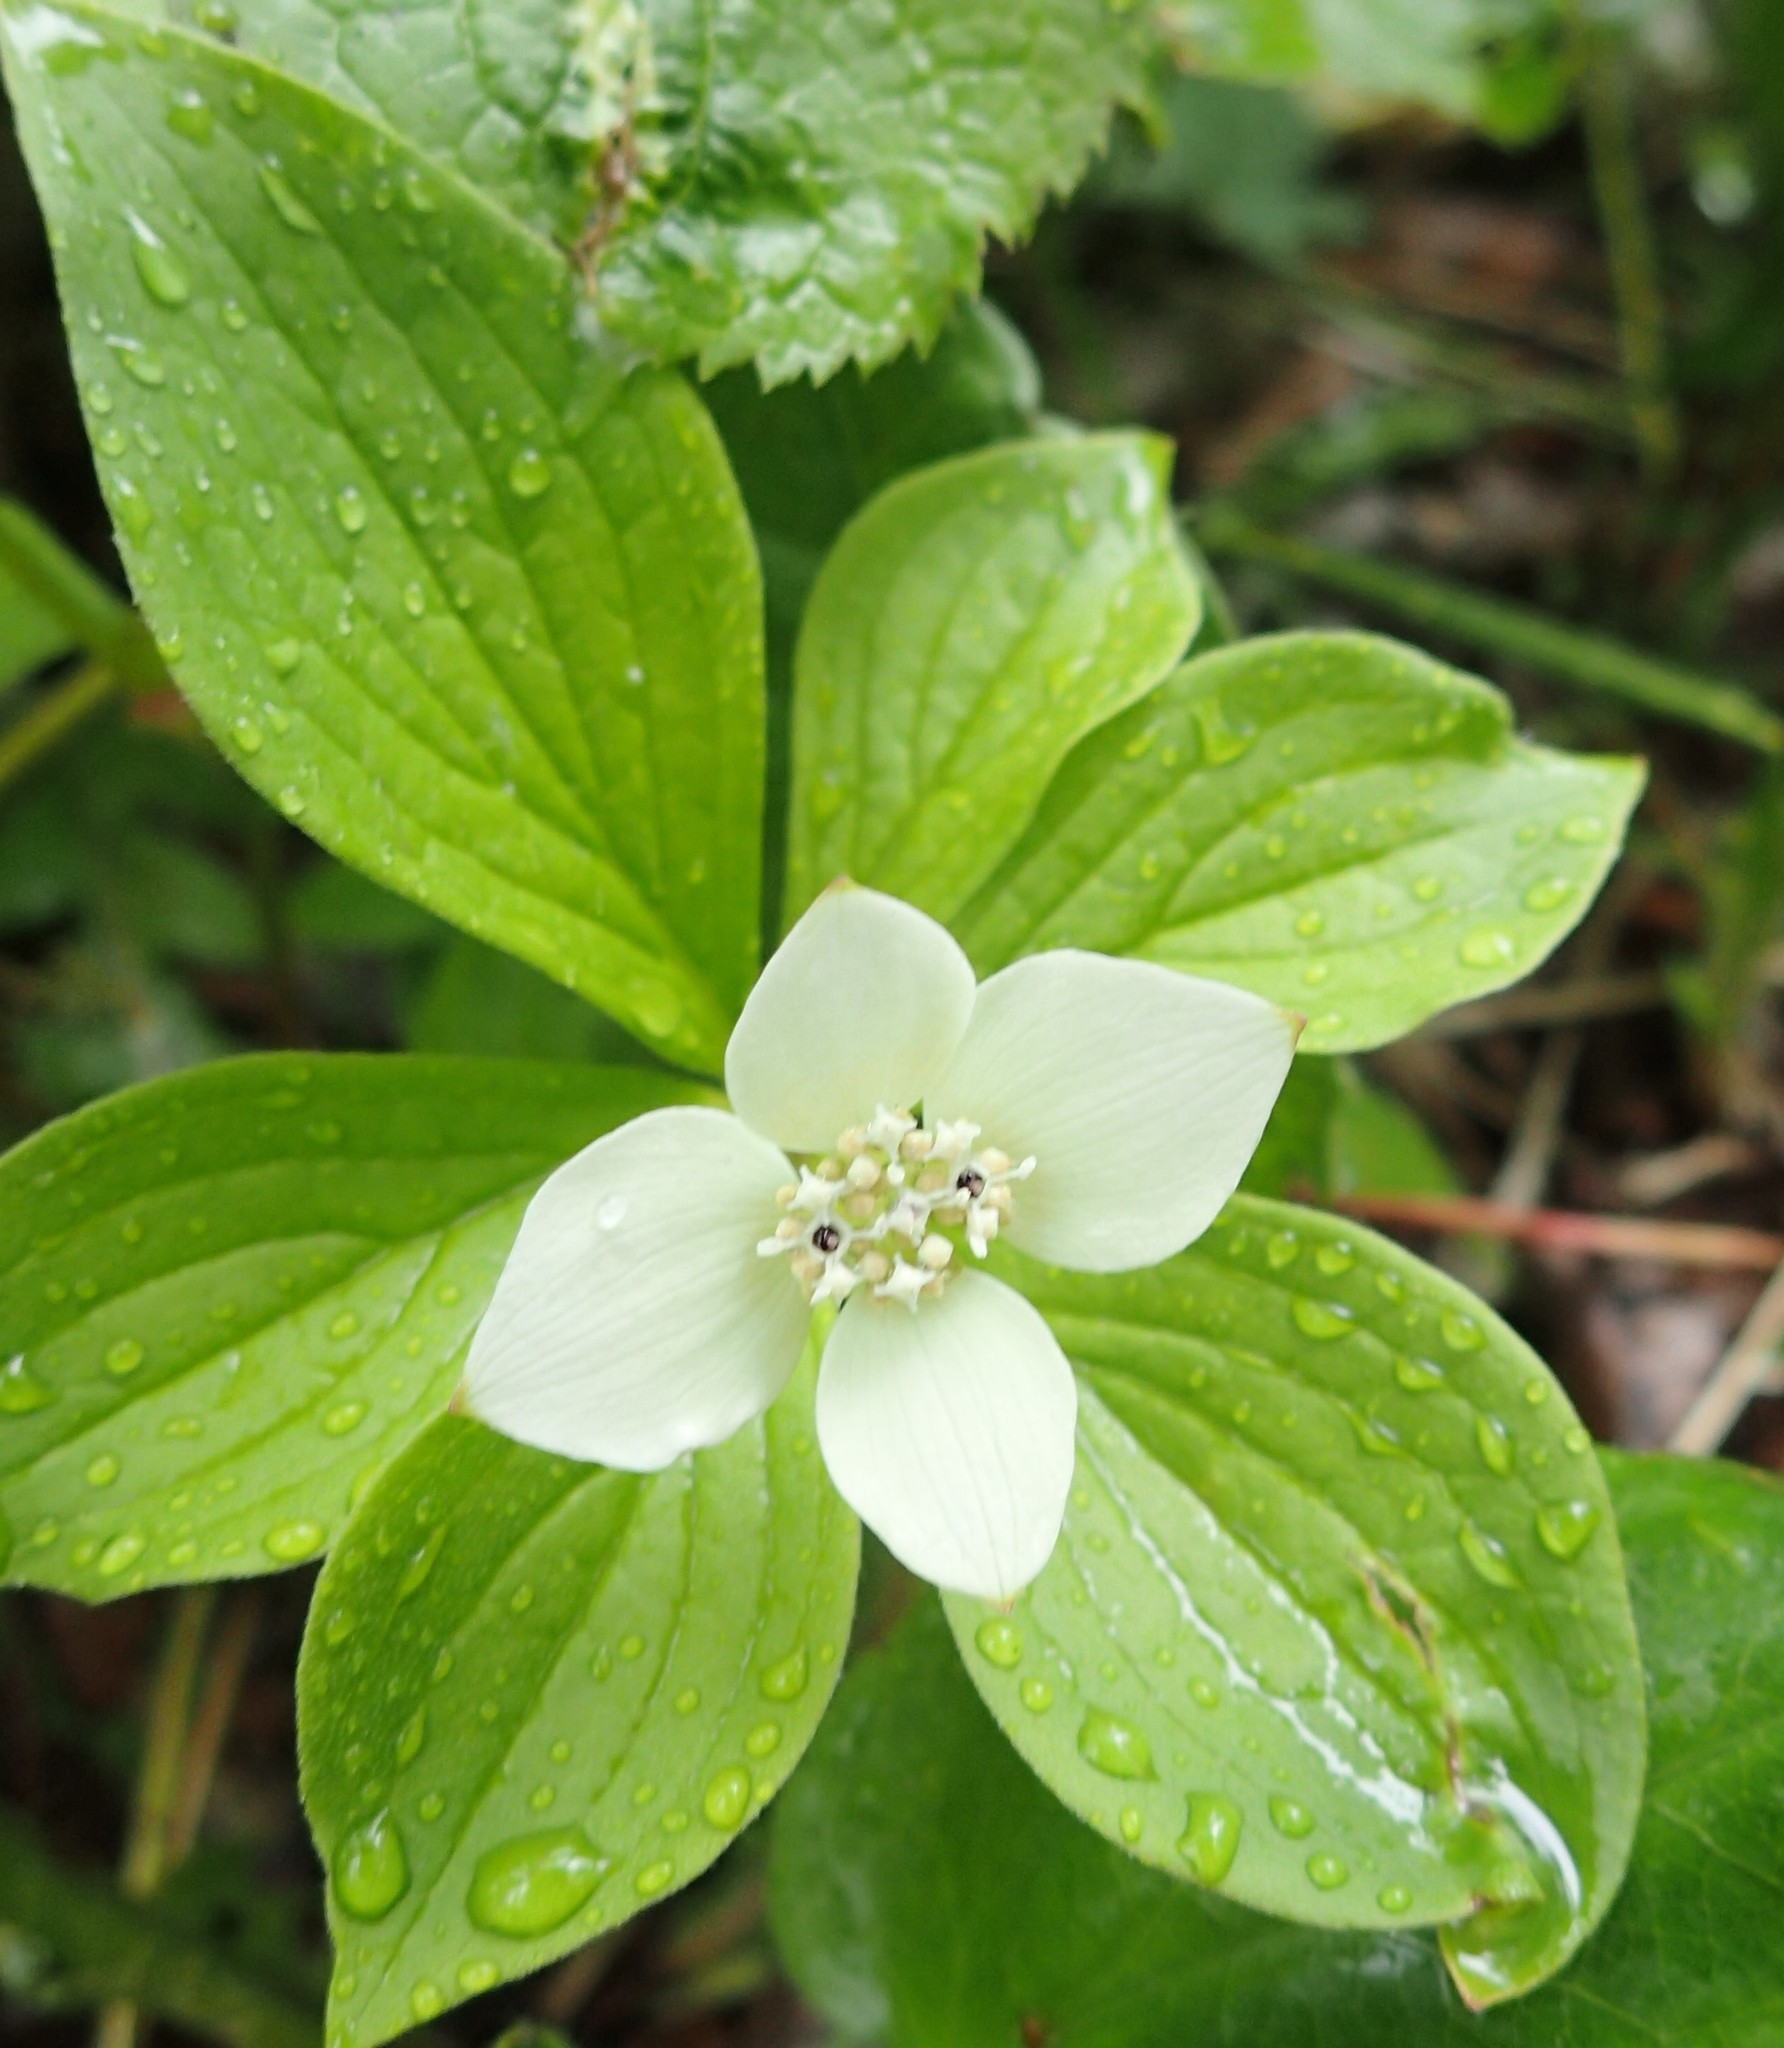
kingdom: Plantae
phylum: Tracheophyta
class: Magnoliopsida
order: Cornales
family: Cornaceae
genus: Cornus
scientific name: Cornus canadensis
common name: Creeping dogwood
